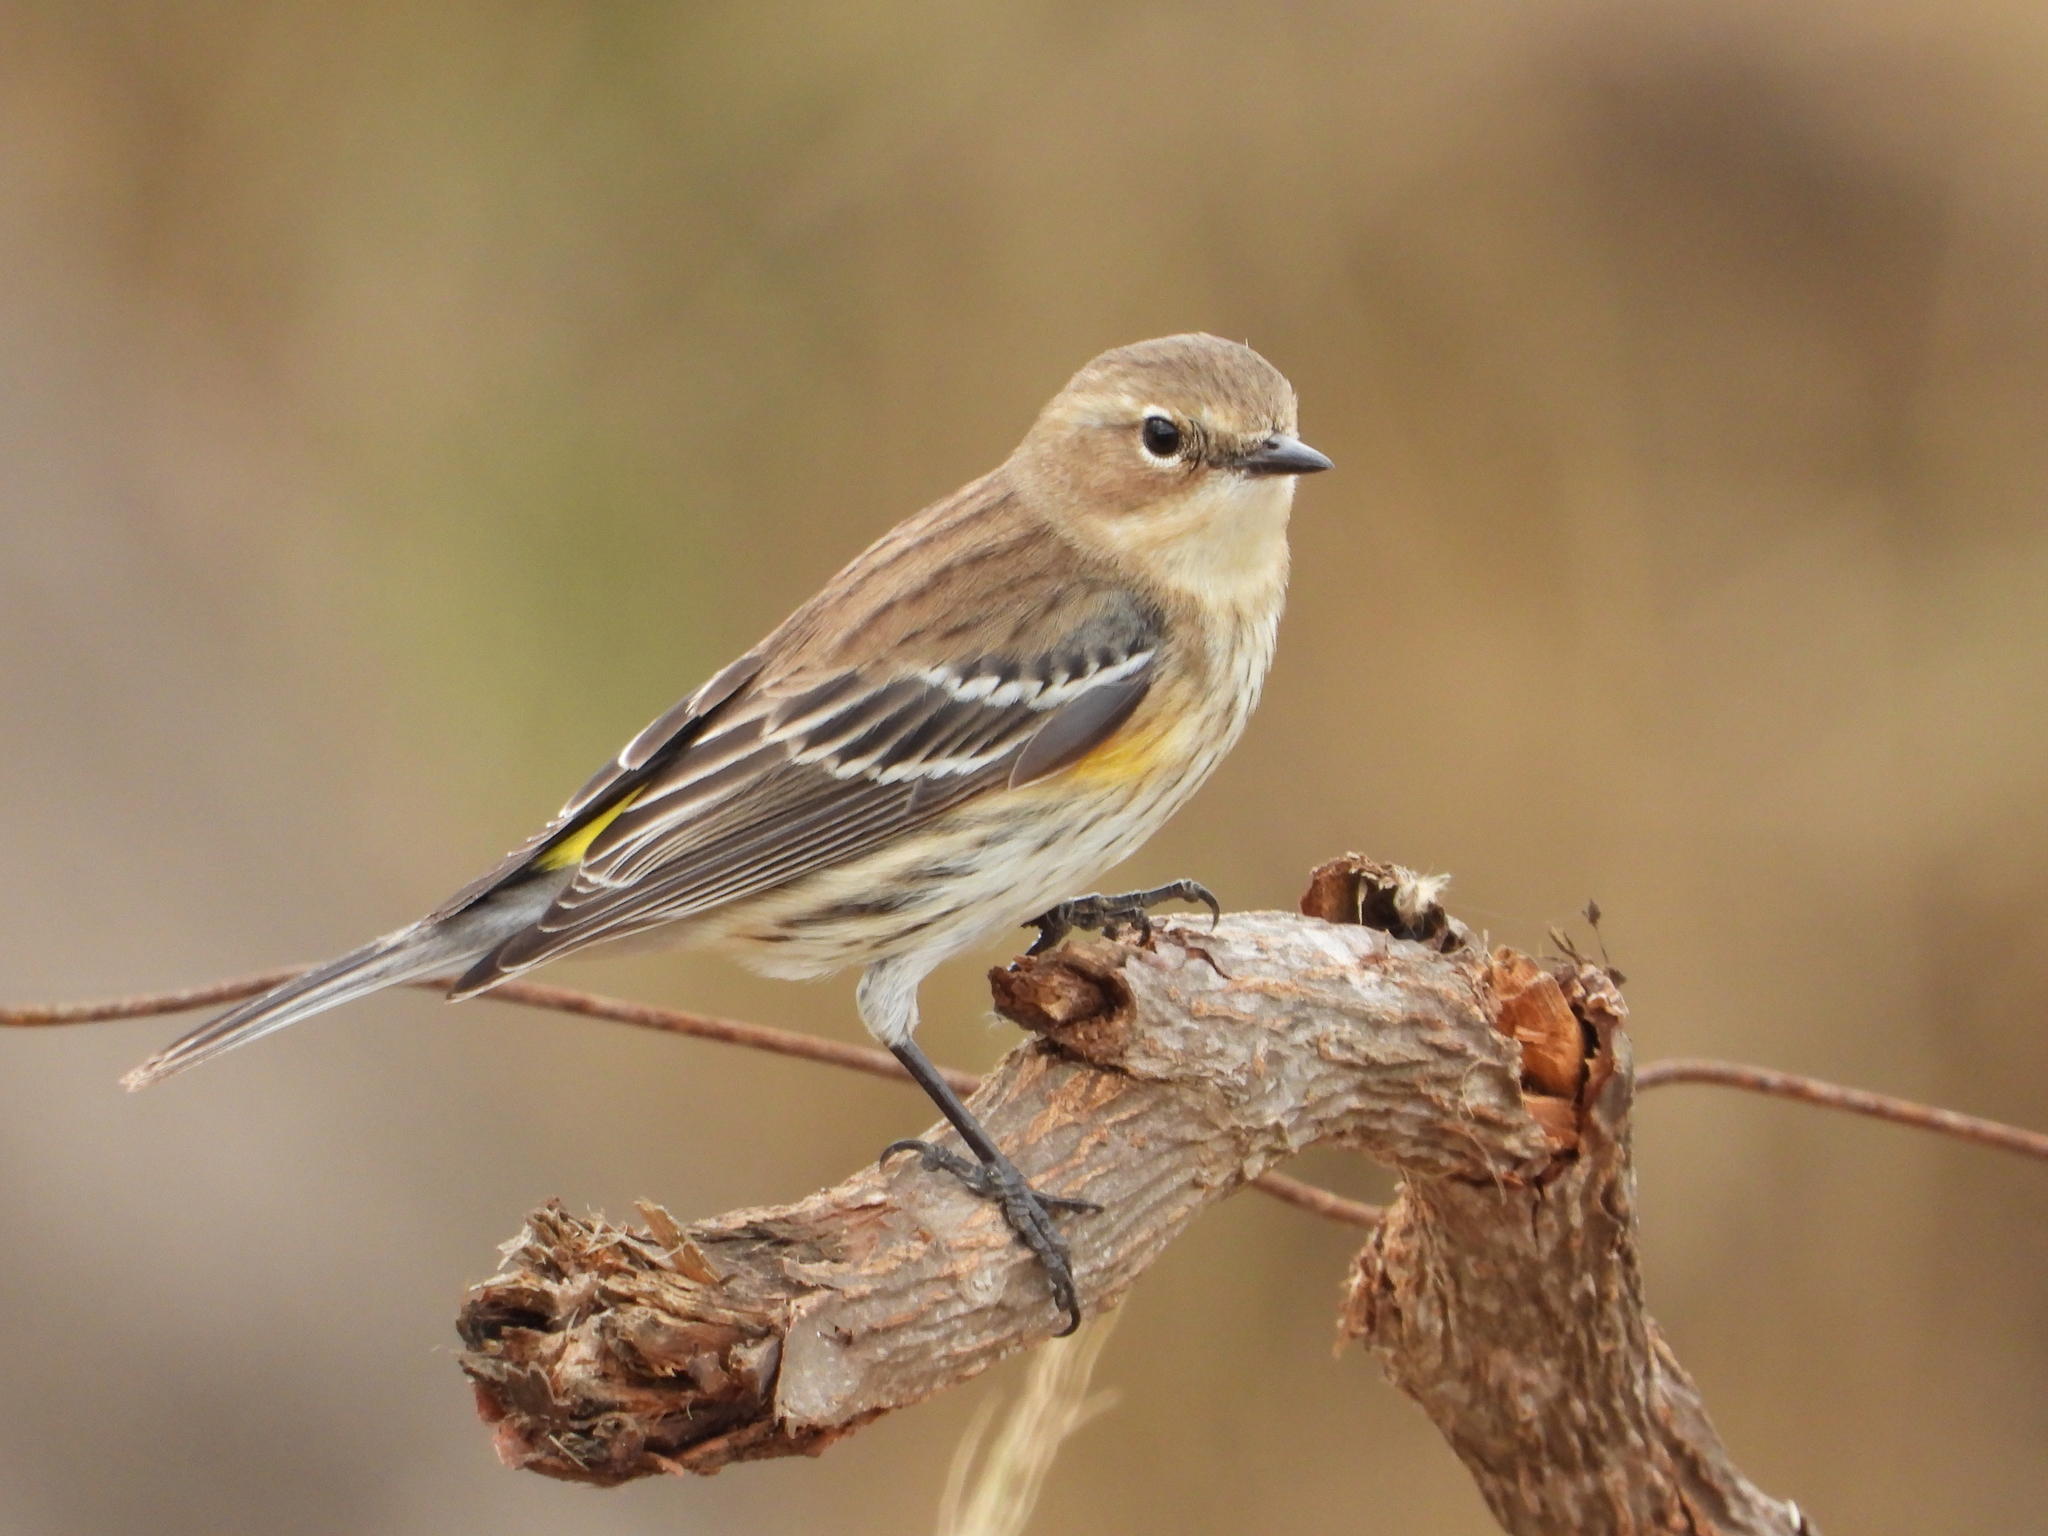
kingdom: Animalia
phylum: Chordata
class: Aves
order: Passeriformes
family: Parulidae
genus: Setophaga
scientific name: Setophaga coronata
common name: Myrtle warbler
